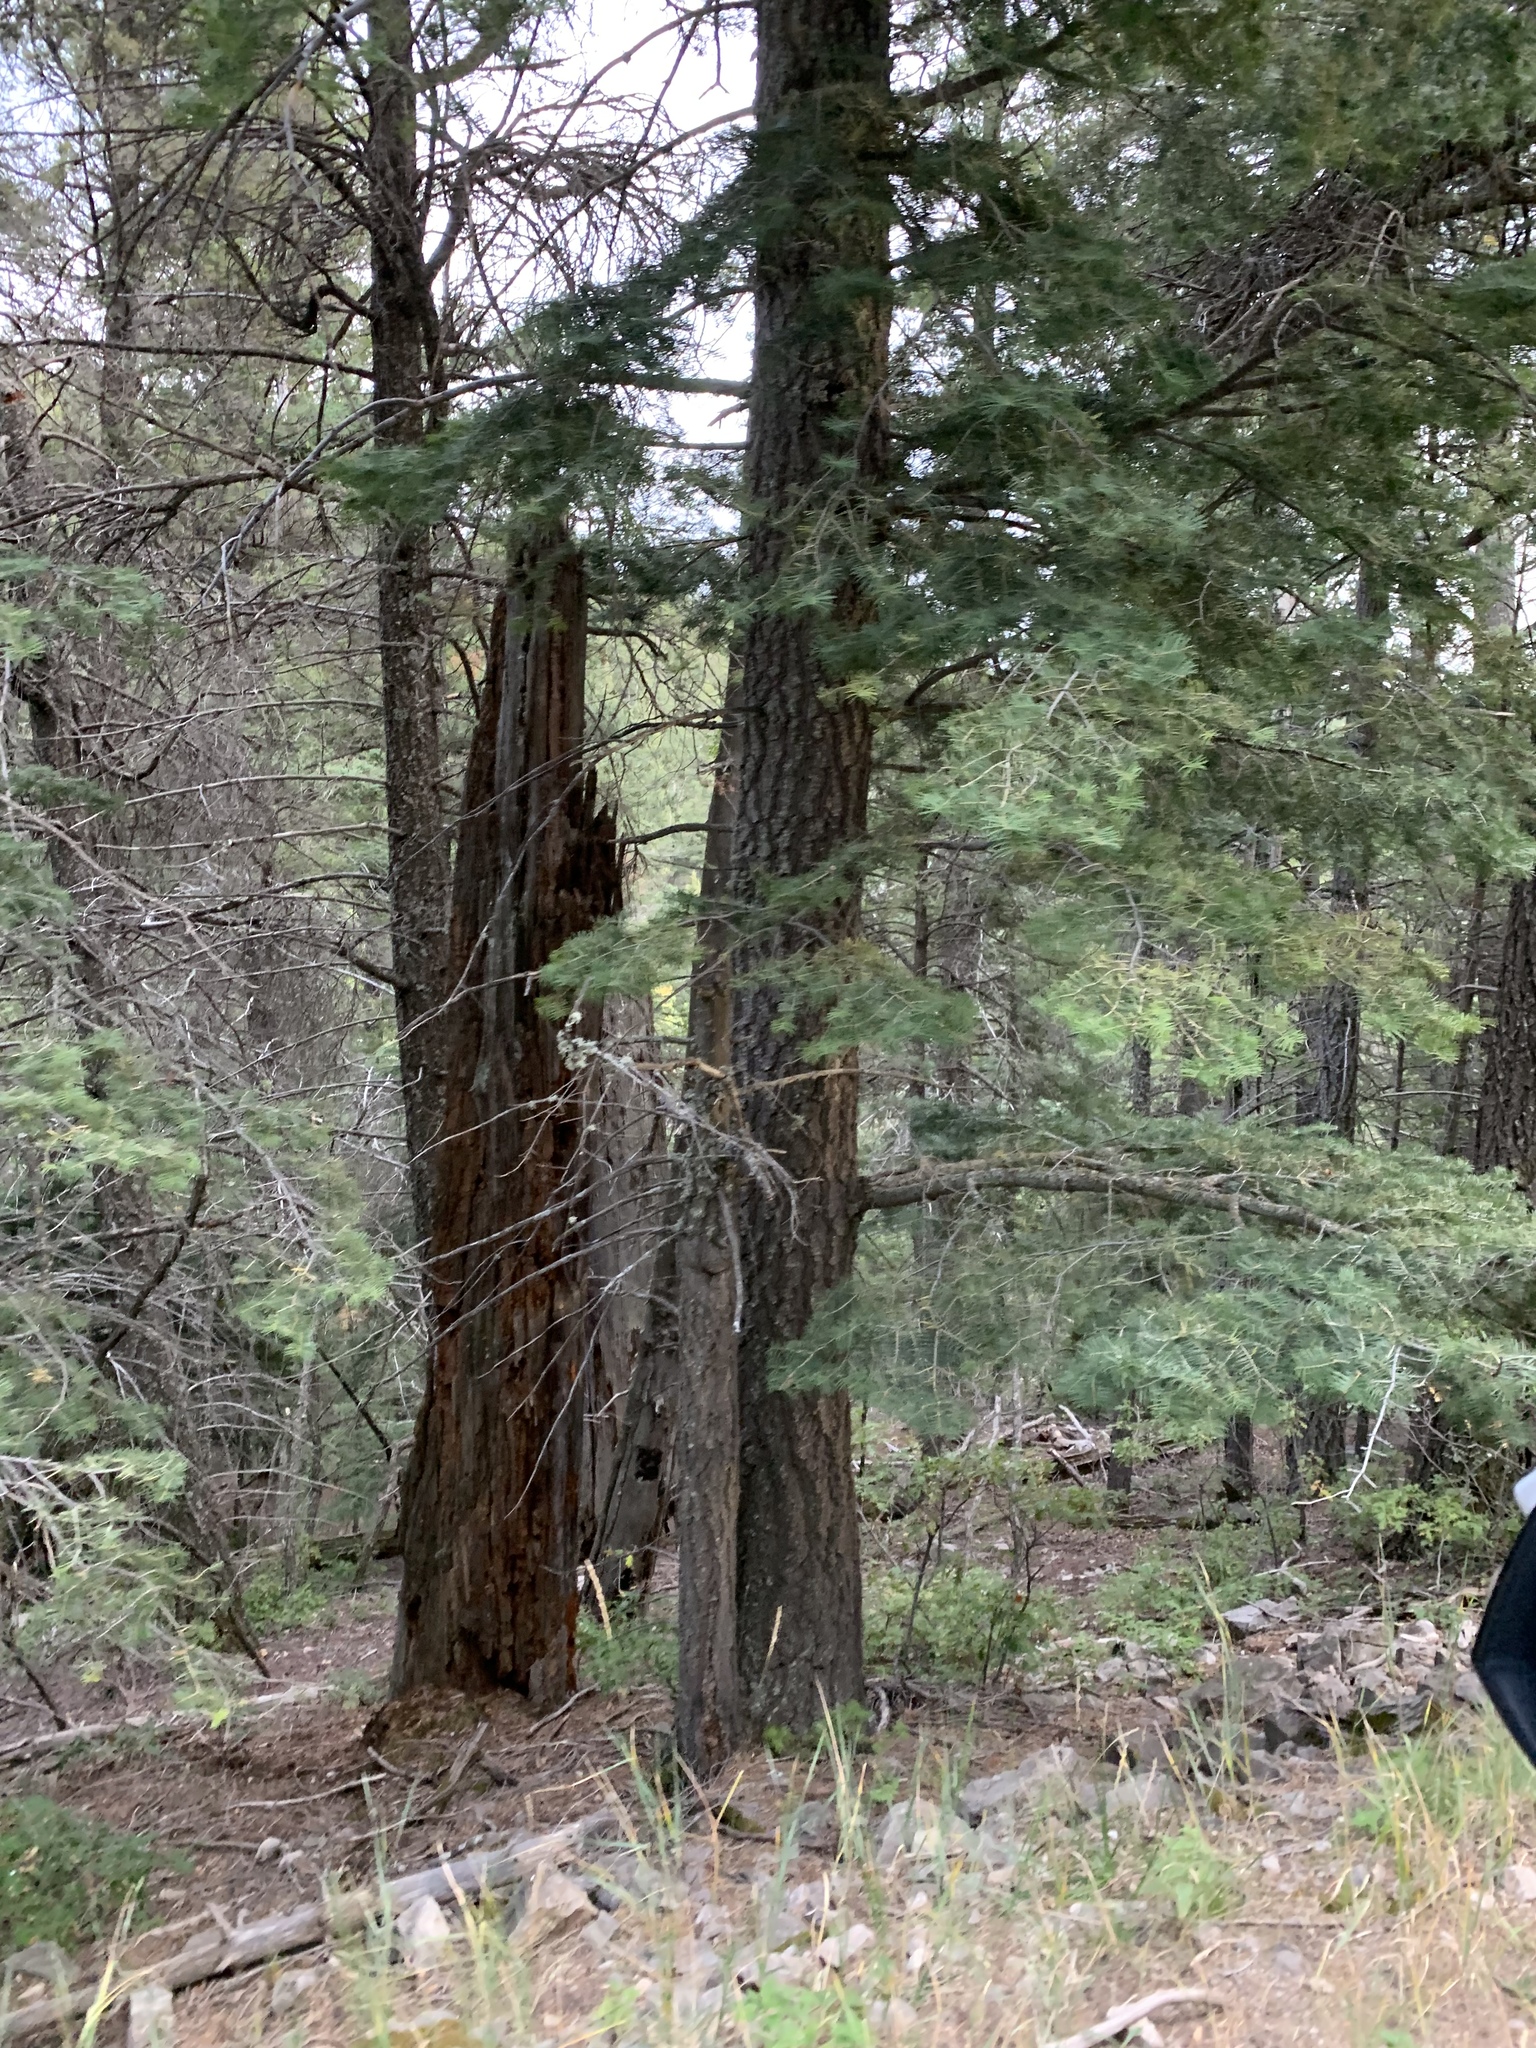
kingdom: Plantae
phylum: Tracheophyta
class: Pinopsida
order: Pinales
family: Pinaceae
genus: Abies
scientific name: Abies concolor
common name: Colorado fir
